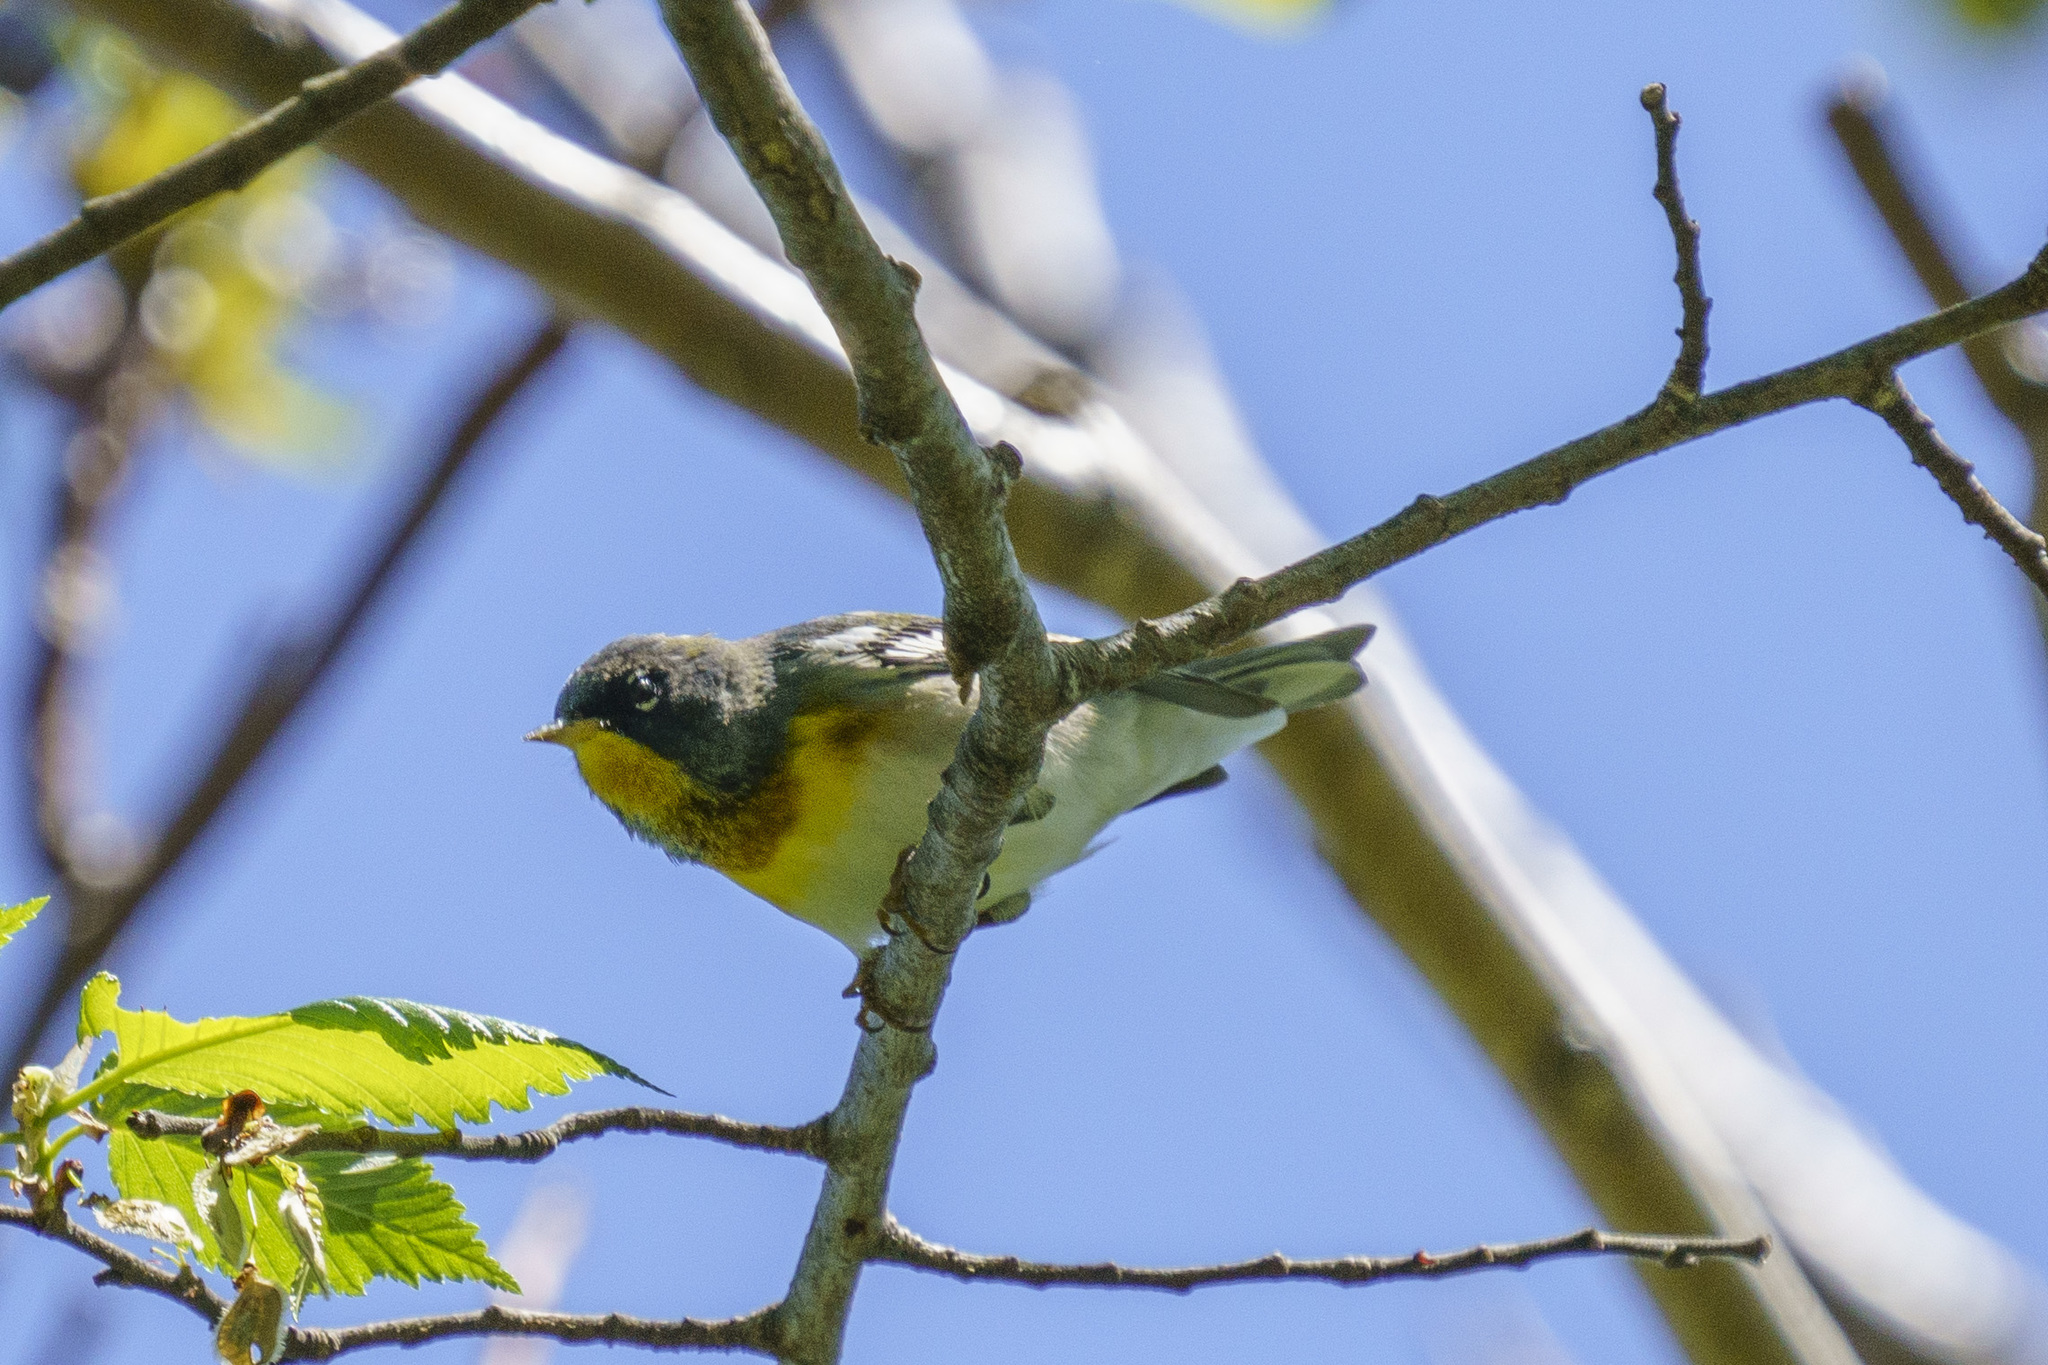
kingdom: Animalia
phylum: Chordata
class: Aves
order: Passeriformes
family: Parulidae
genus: Setophaga
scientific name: Setophaga americana
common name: Northern parula
